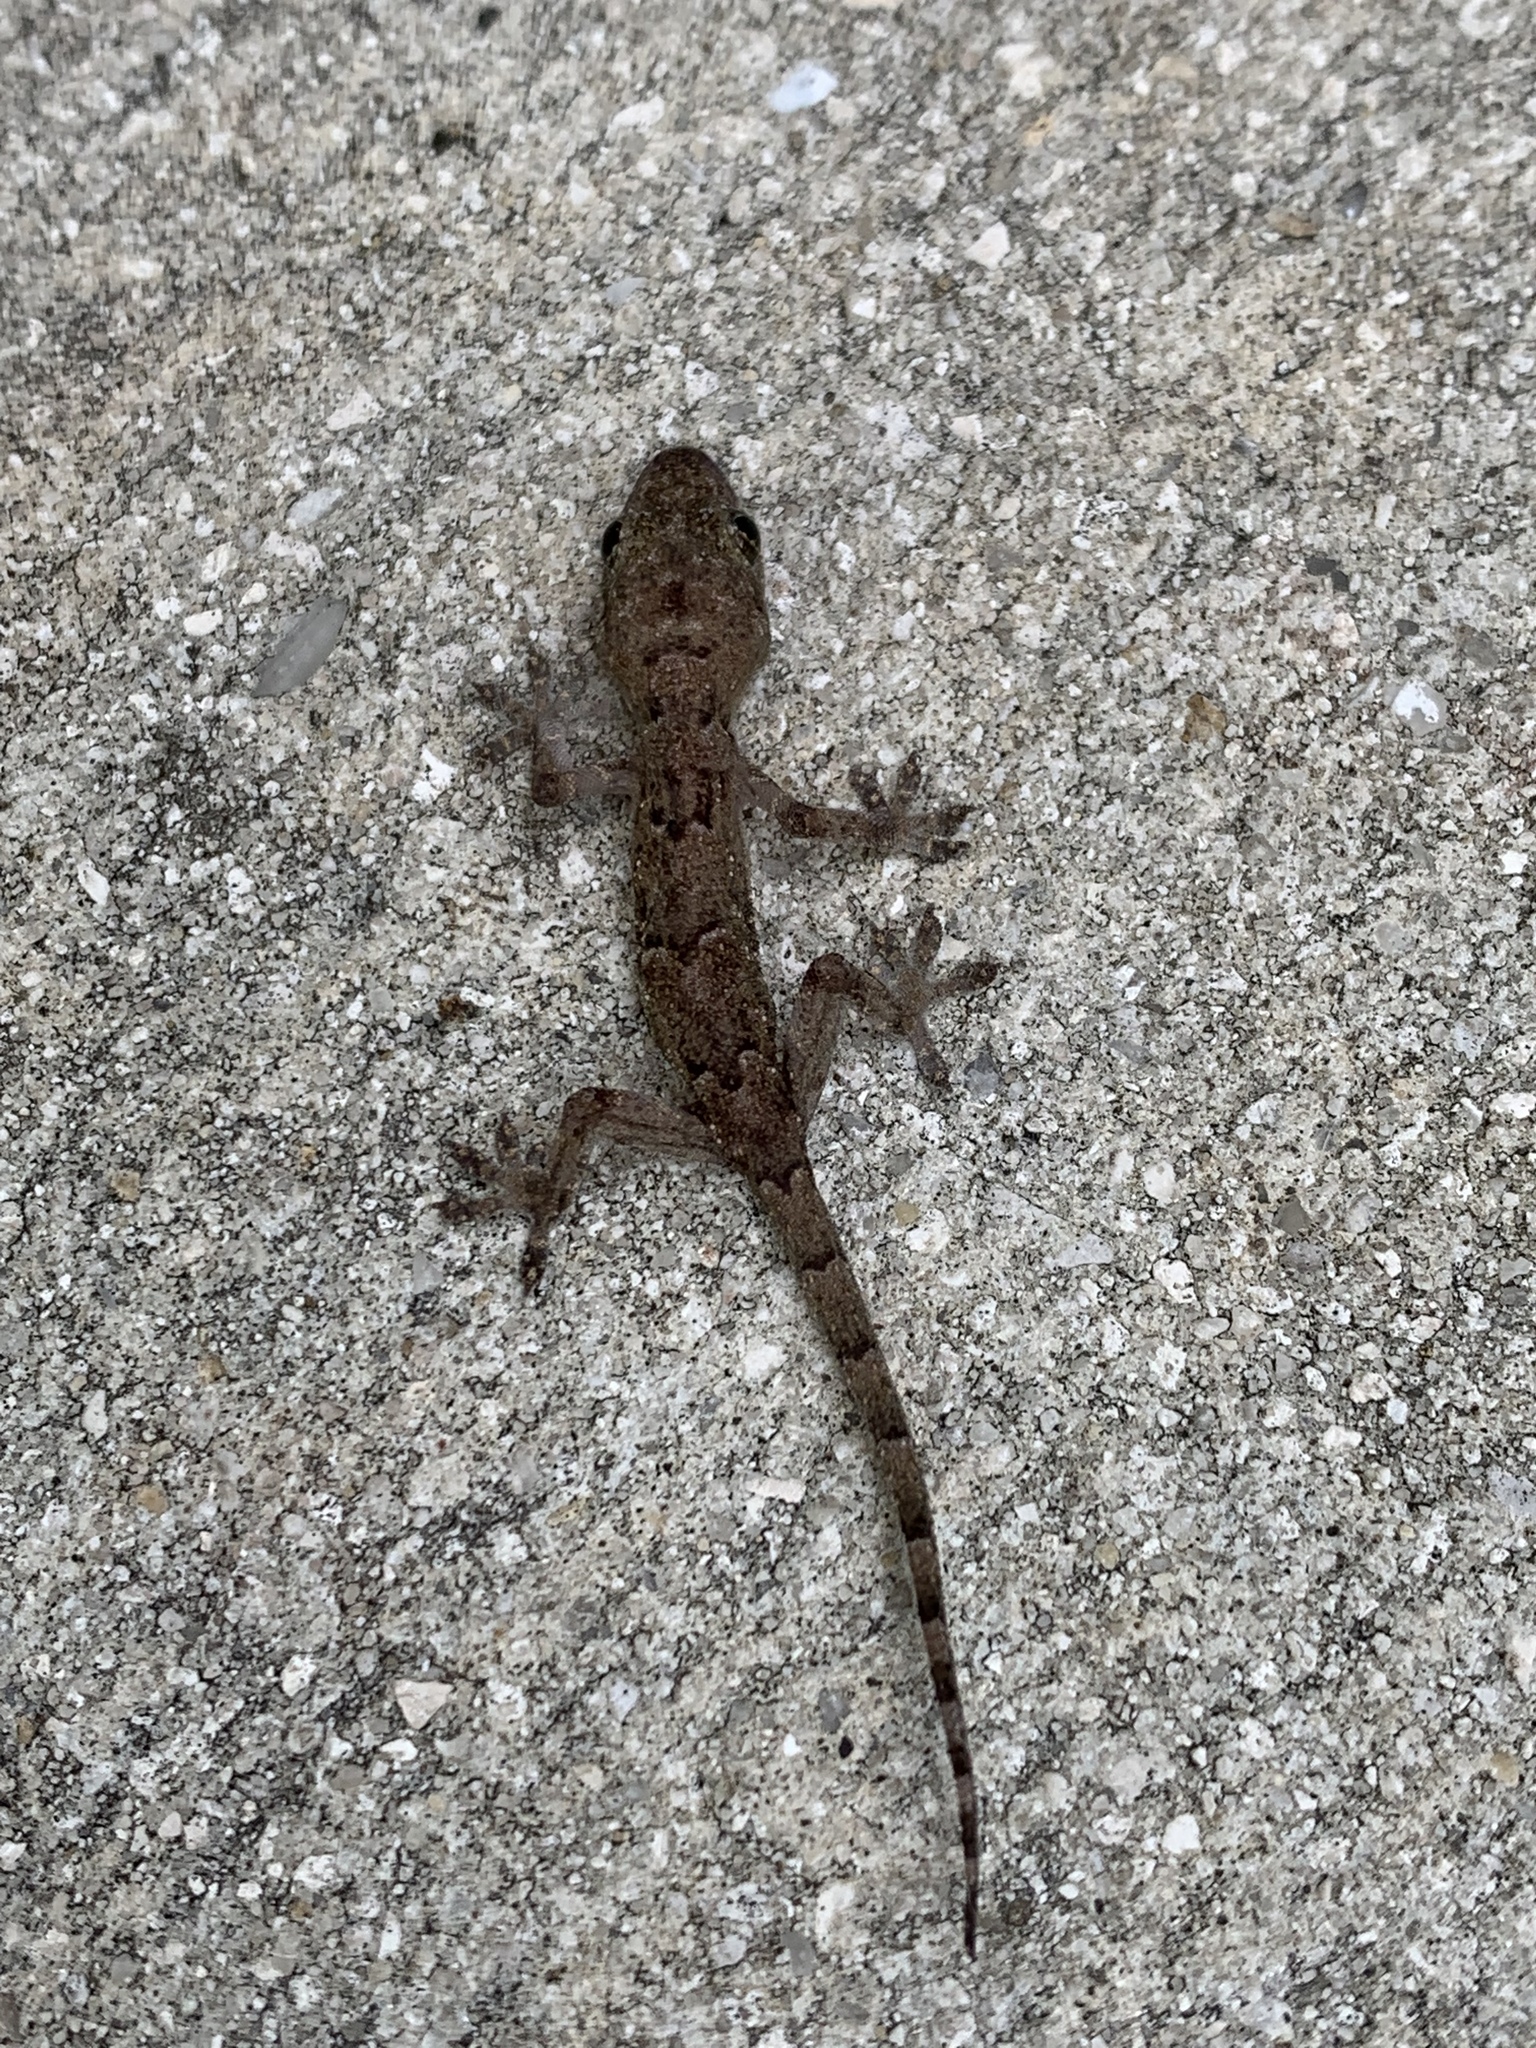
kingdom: Animalia
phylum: Chordata
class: Squamata
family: Gekkonidae
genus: Hemidactylus
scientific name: Hemidactylus mabouia
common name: House gecko
